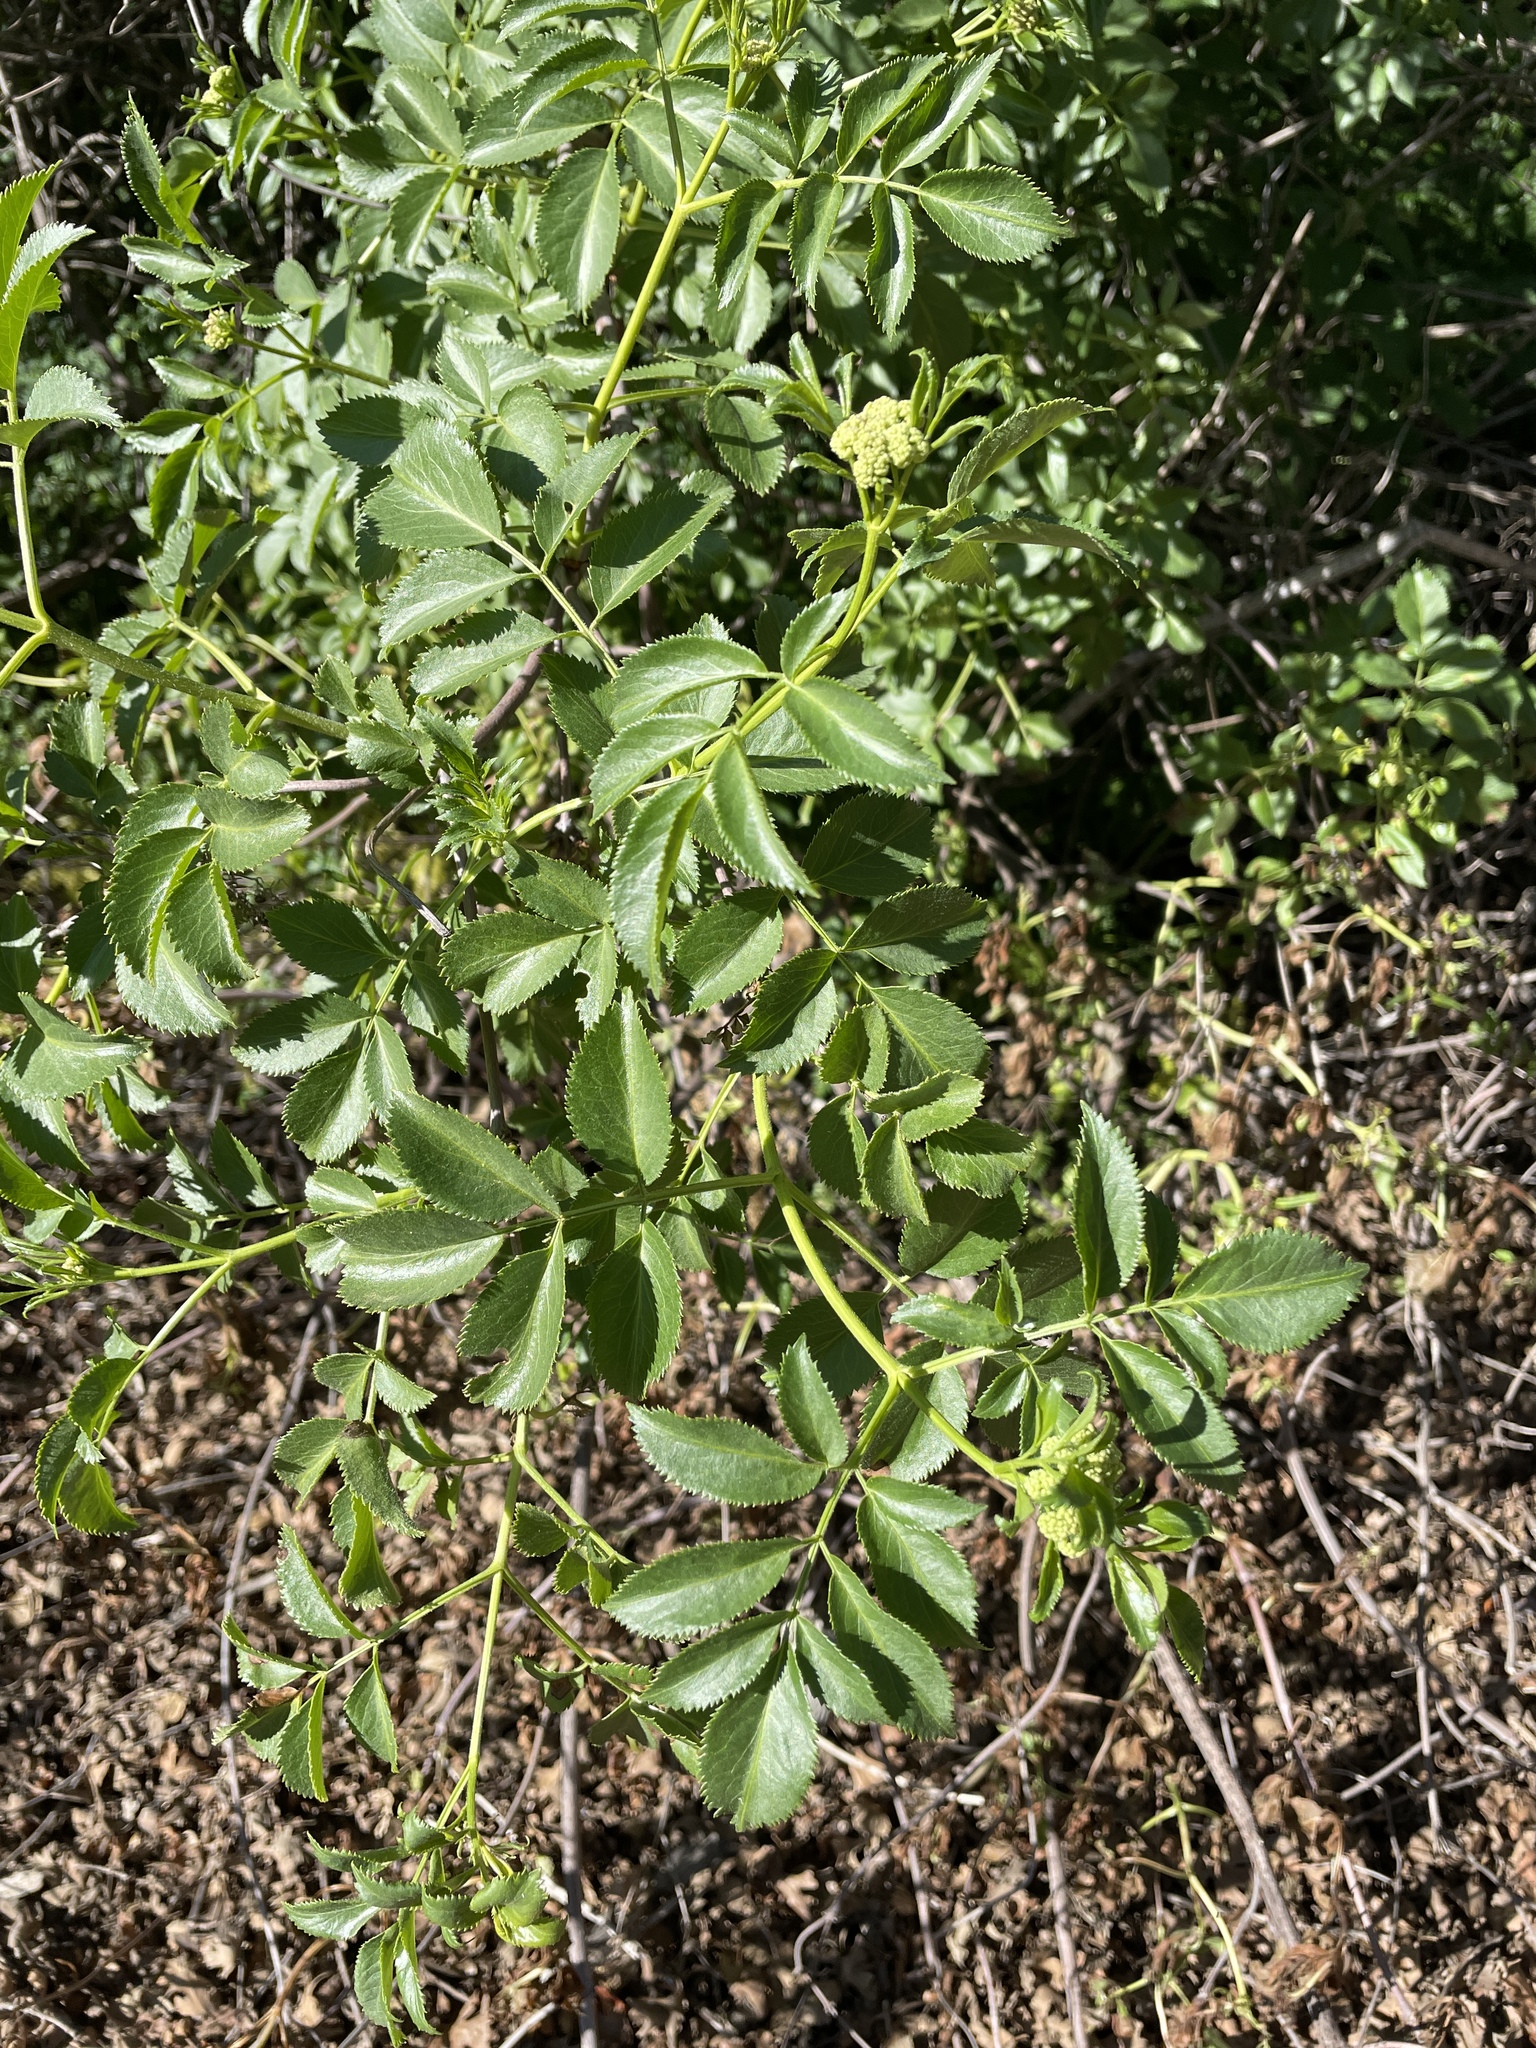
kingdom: Plantae
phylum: Tracheophyta
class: Magnoliopsida
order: Dipsacales
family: Viburnaceae
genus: Sambucus
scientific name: Sambucus cerulea
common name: Blue elder
